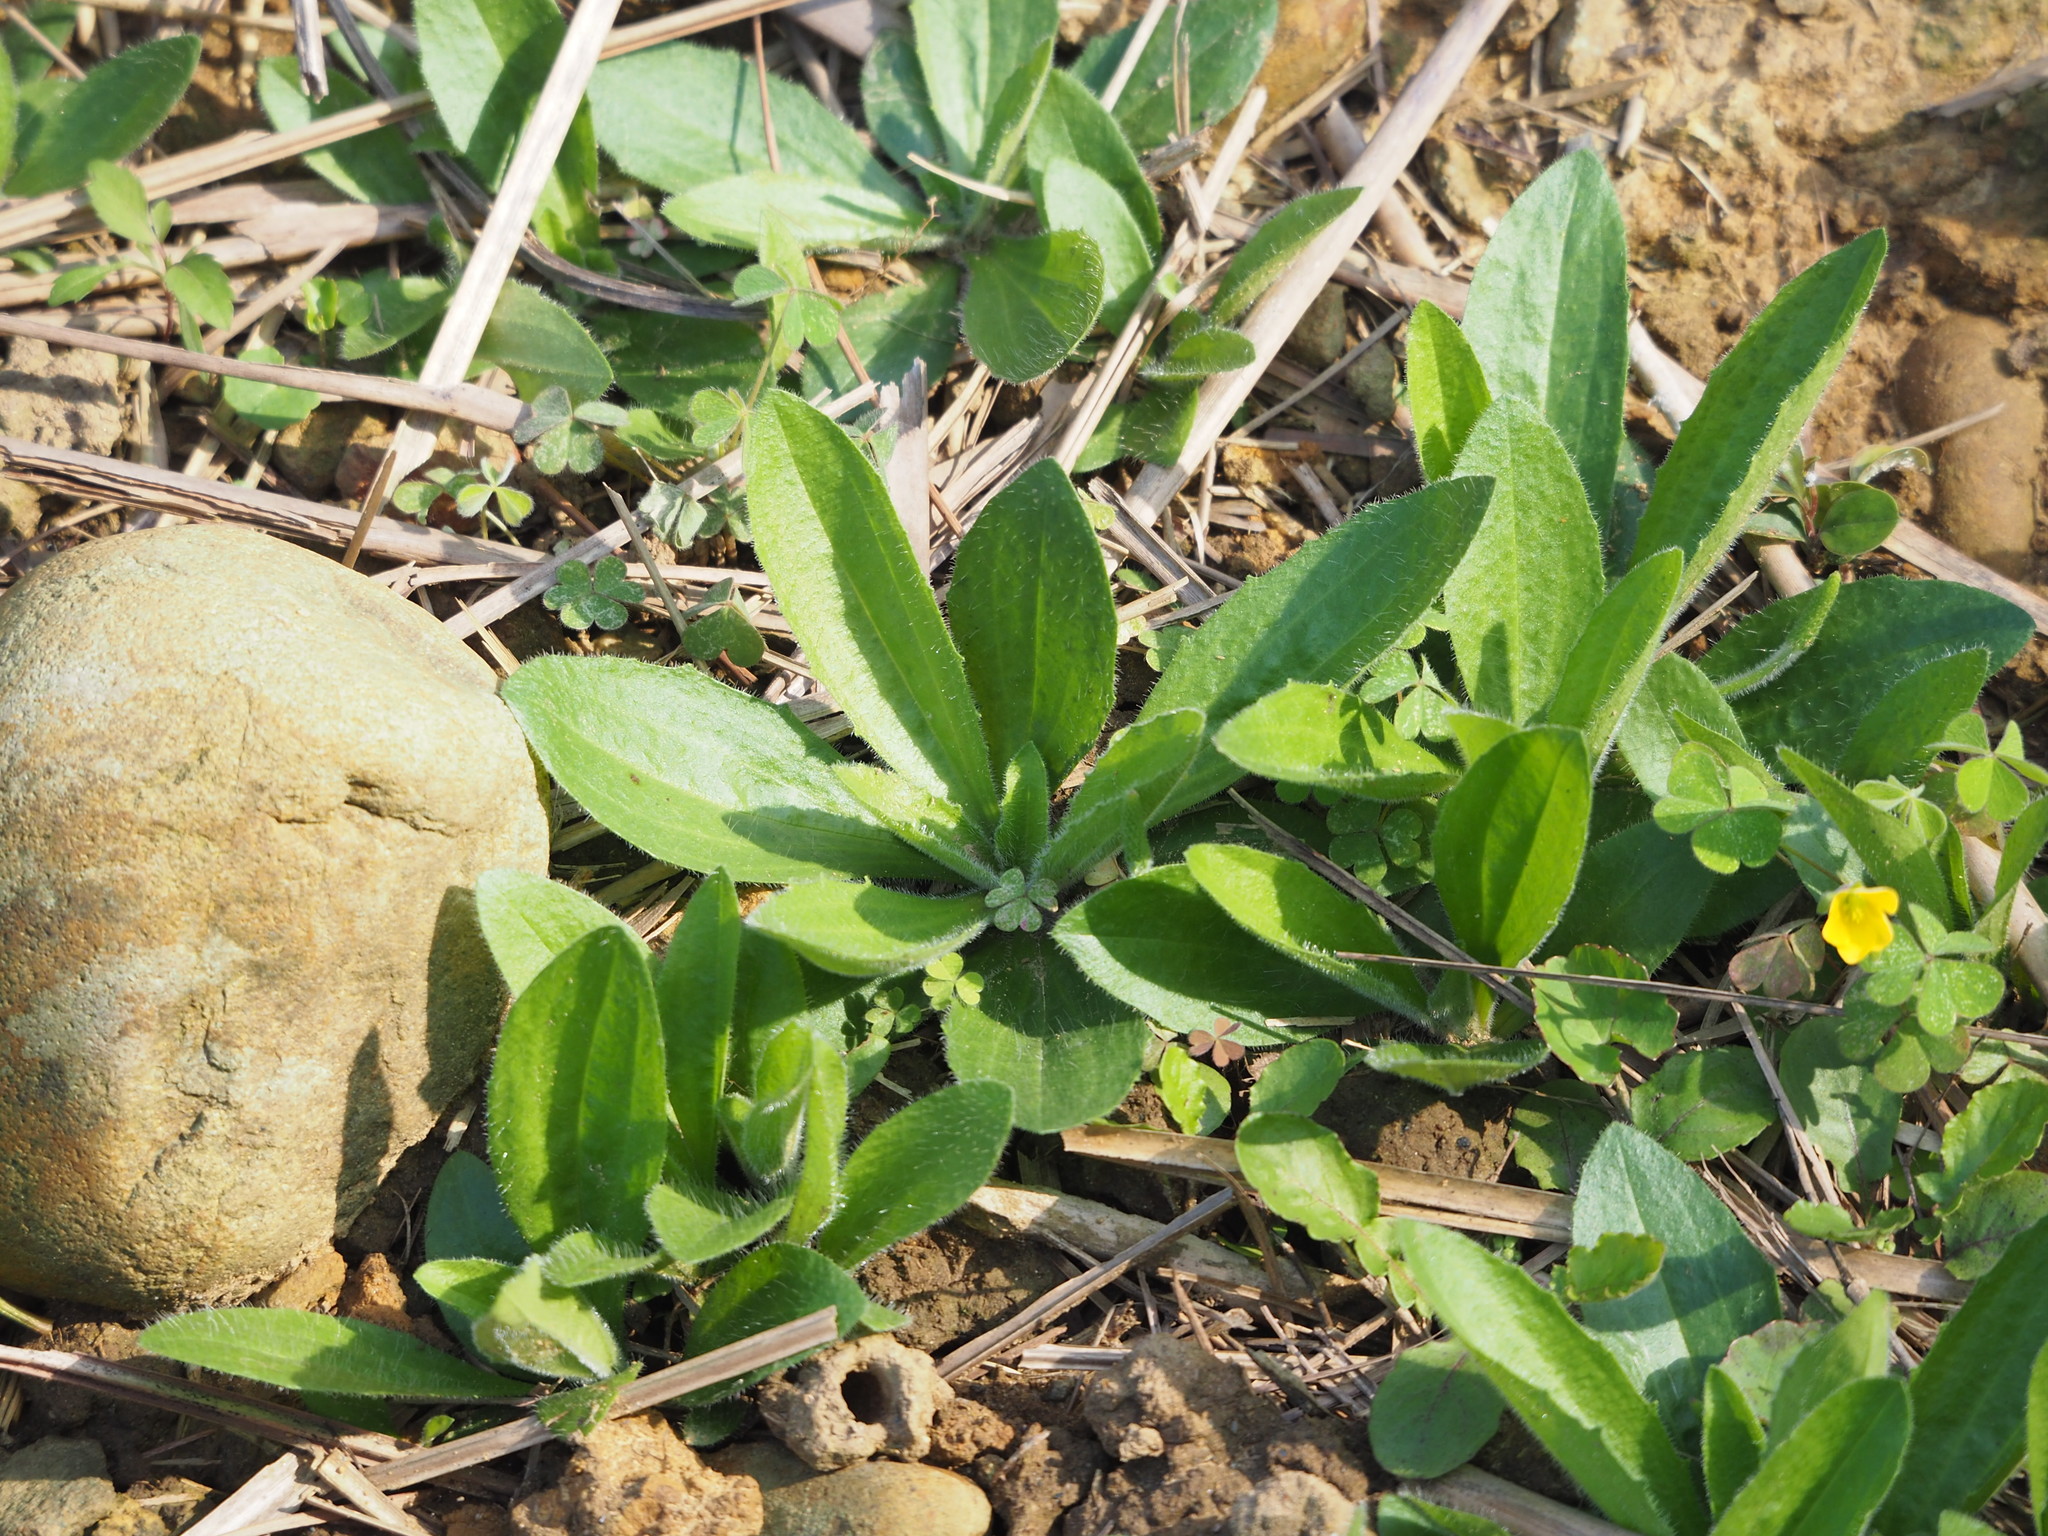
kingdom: Plantae
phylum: Tracheophyta
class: Magnoliopsida
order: Lamiales
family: Plantaginaceae
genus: Plantago
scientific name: Plantago virginica
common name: Hoary plantain
